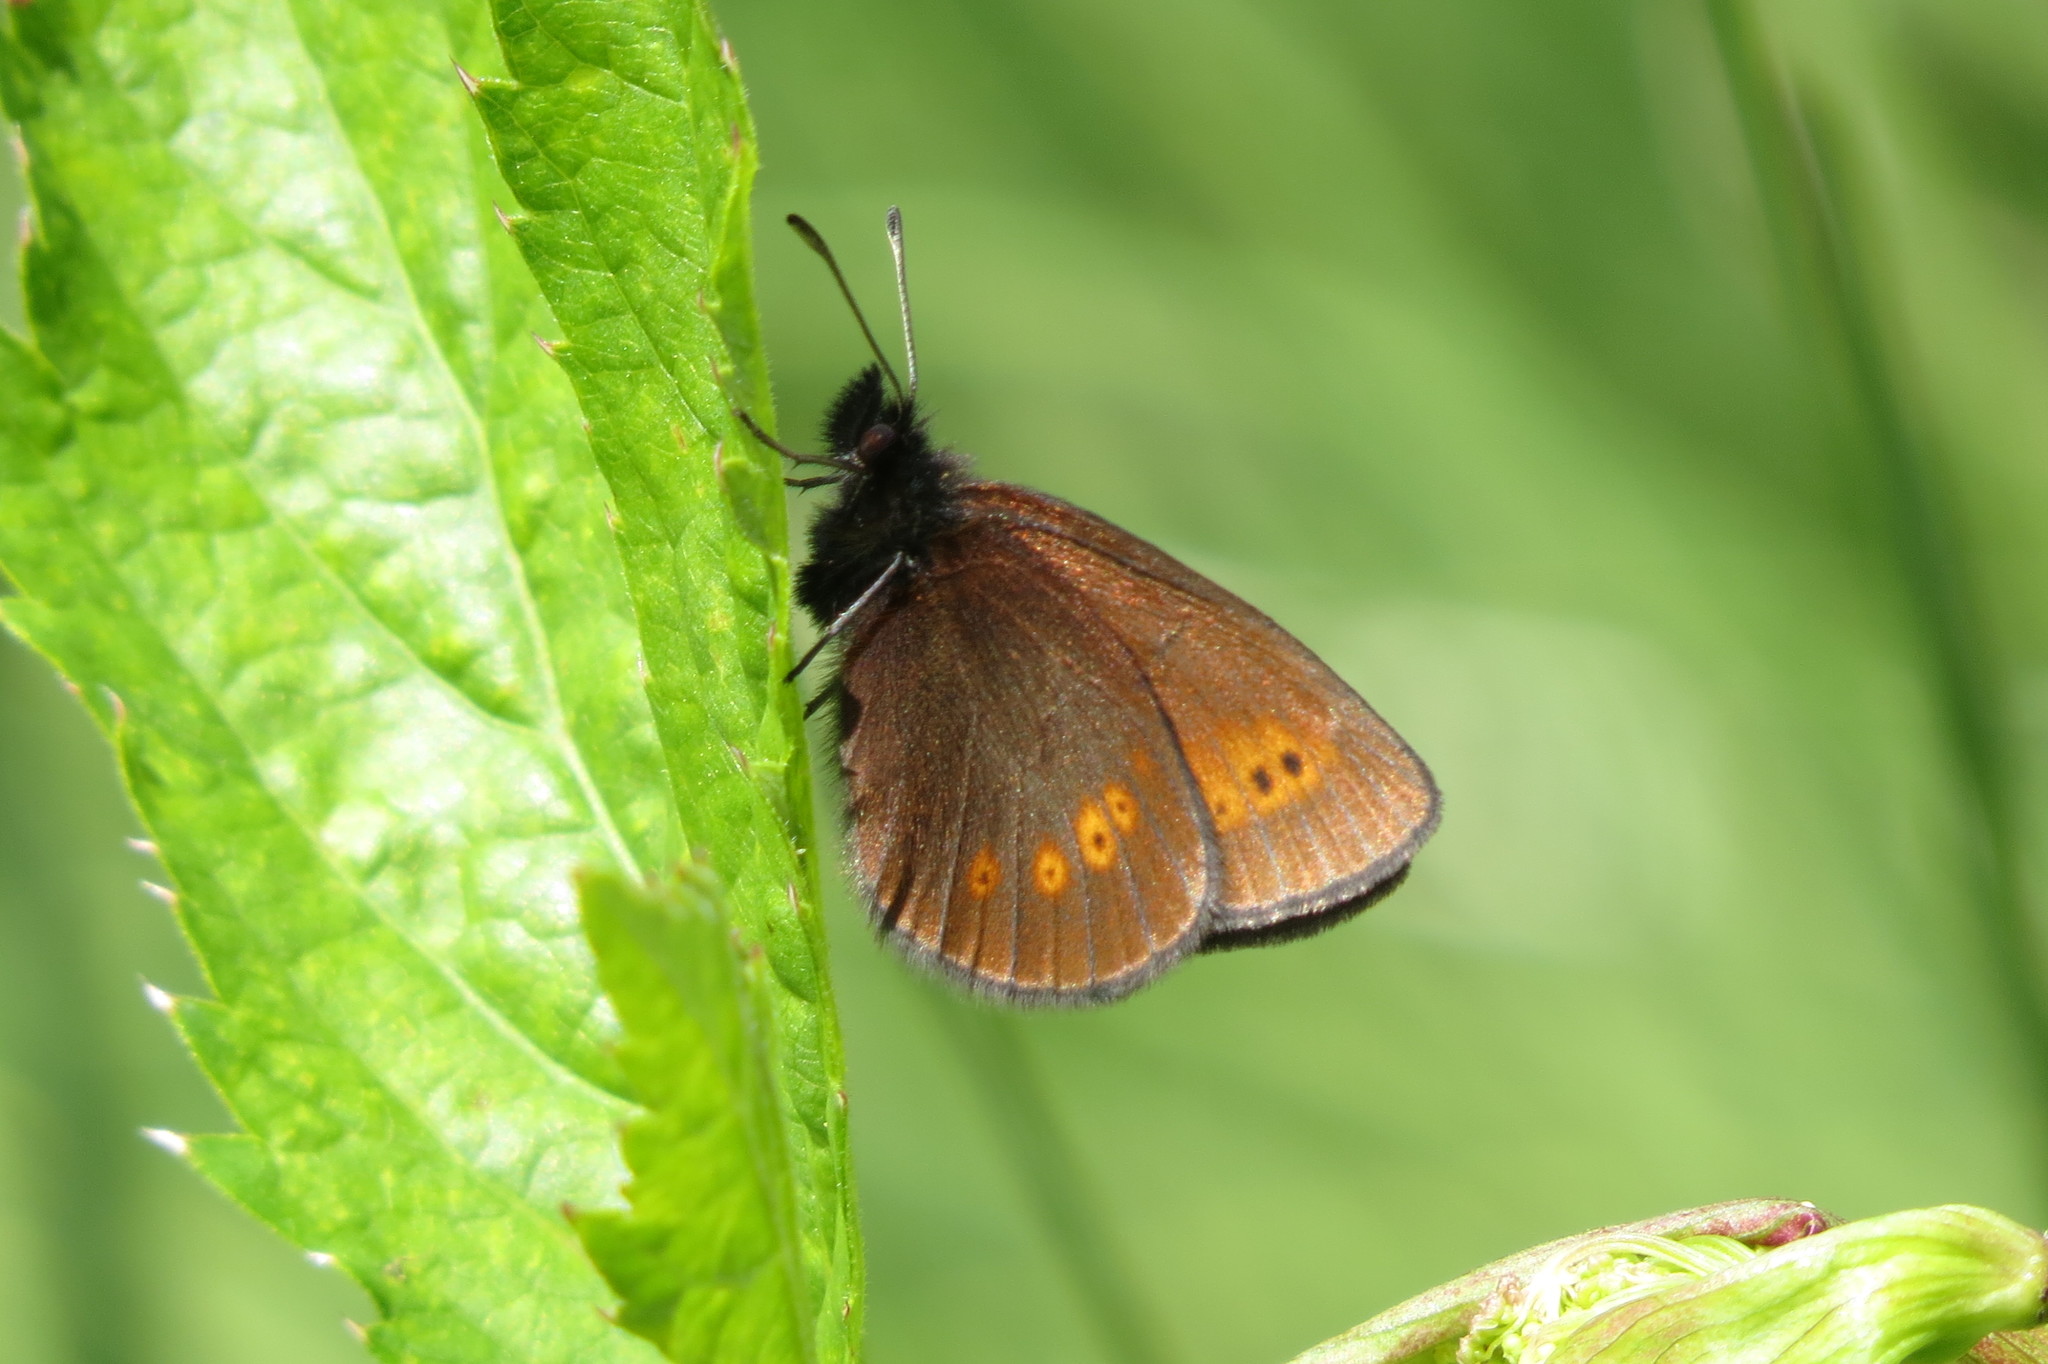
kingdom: Animalia
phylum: Arthropoda
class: Insecta
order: Lepidoptera
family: Nymphalidae
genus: Erebia
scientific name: Erebia melampus
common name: Lesser mountain ringlet
